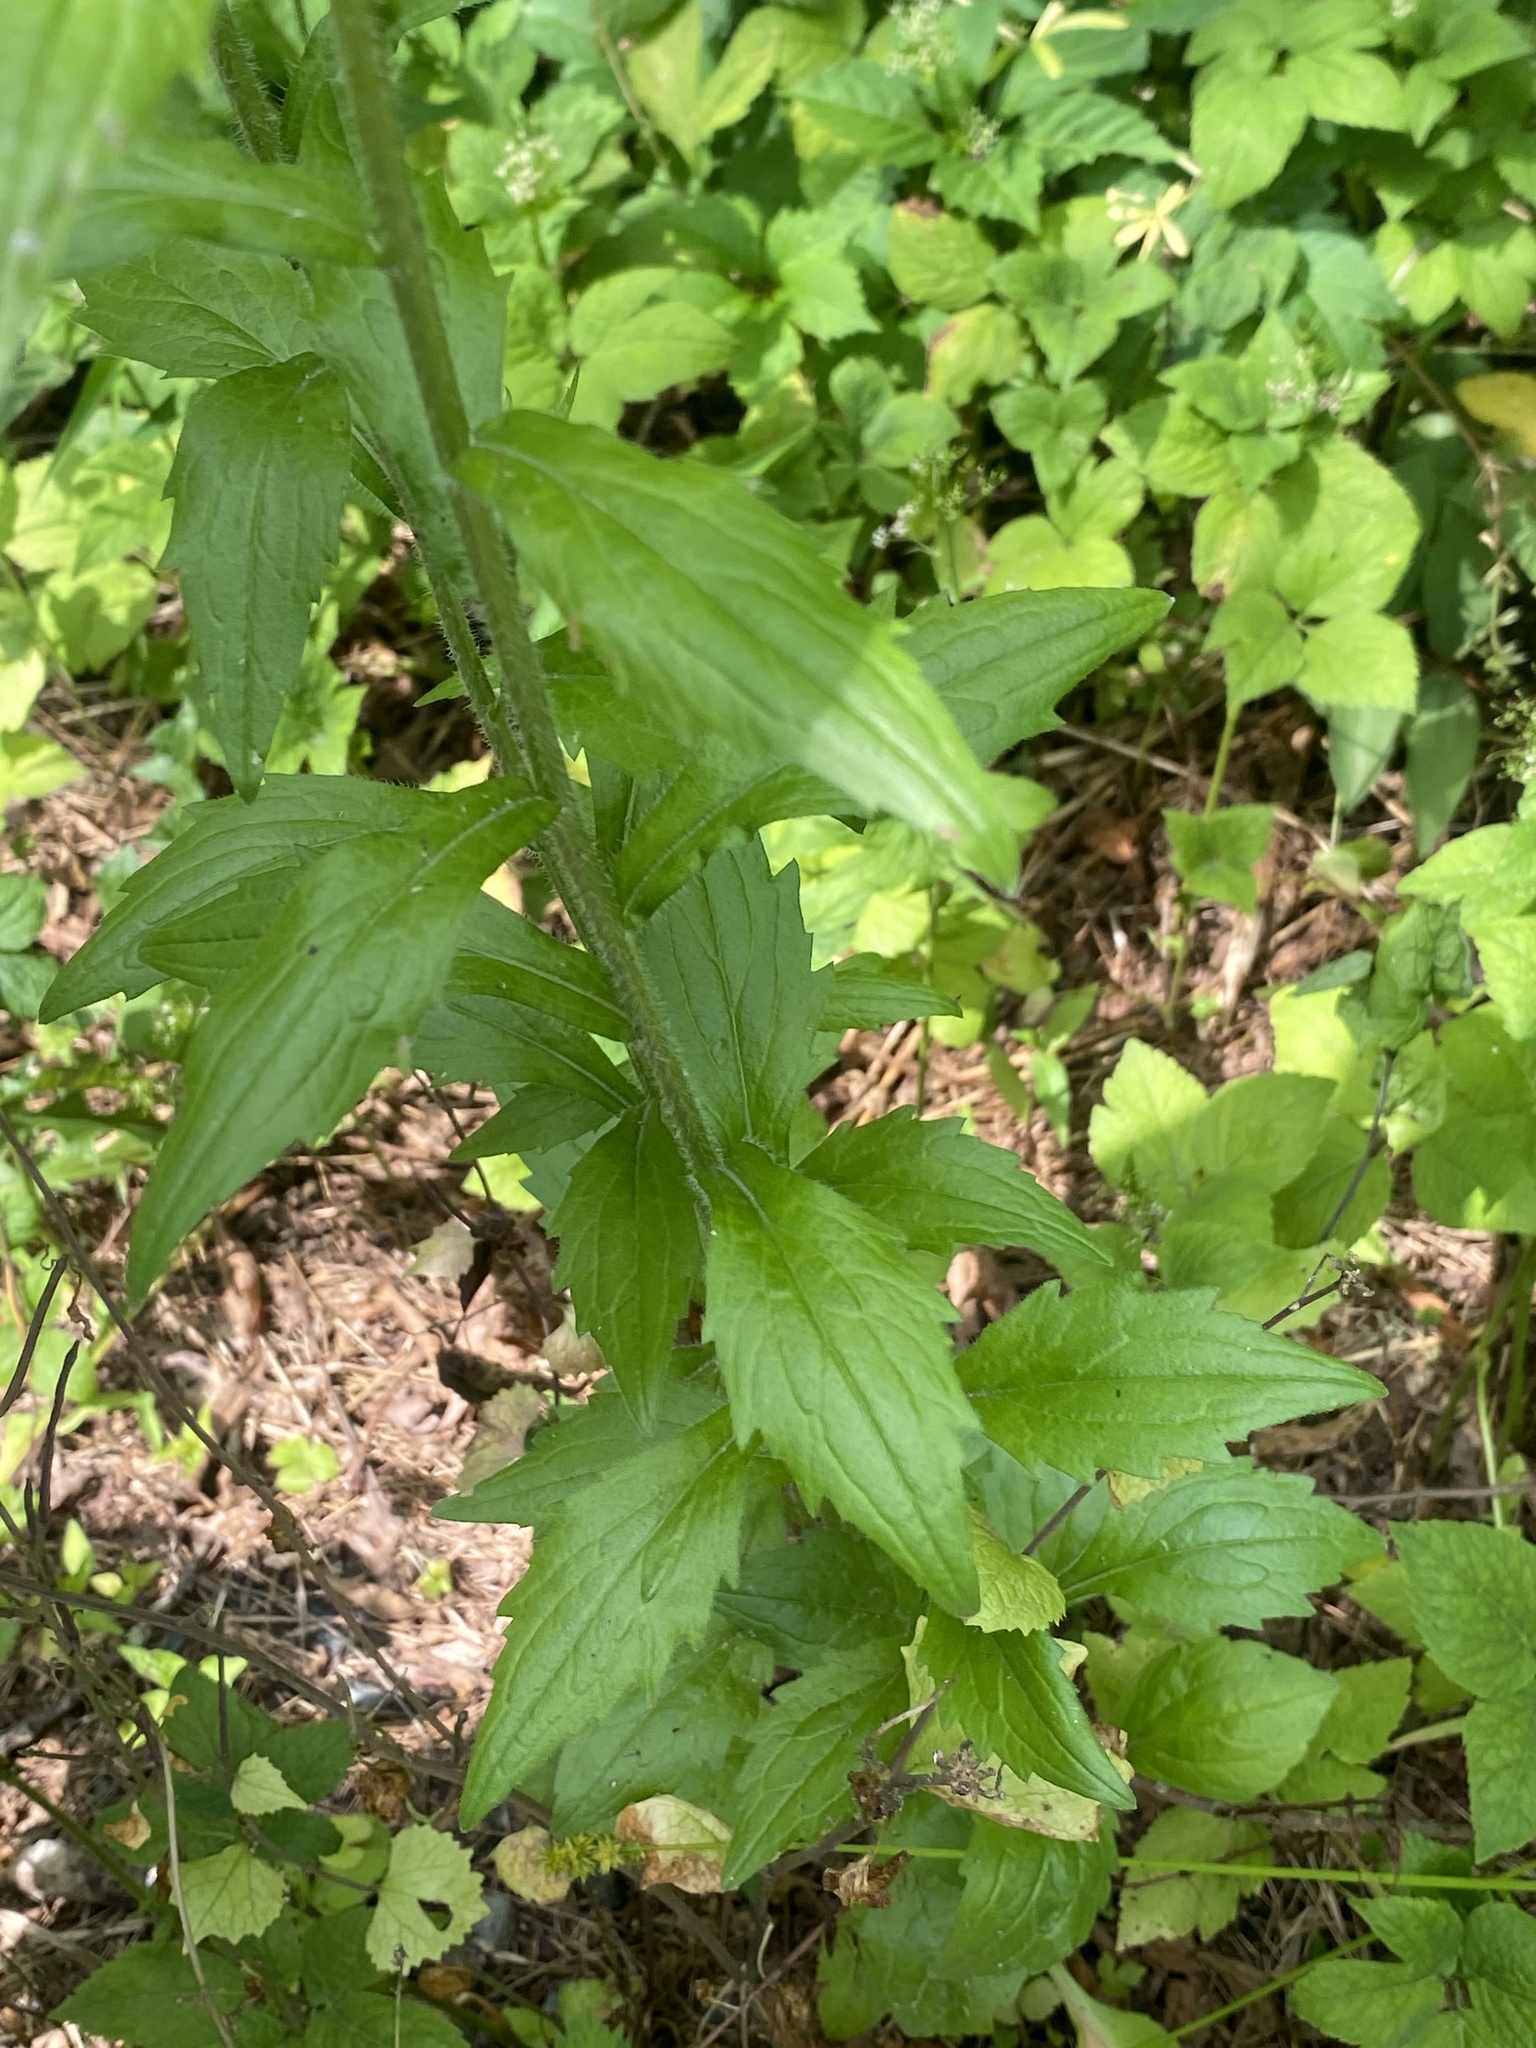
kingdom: Plantae
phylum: Tracheophyta
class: Magnoliopsida
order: Asterales
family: Asteraceae
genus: Erigeron
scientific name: Erigeron annuus
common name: Tall fleabane
